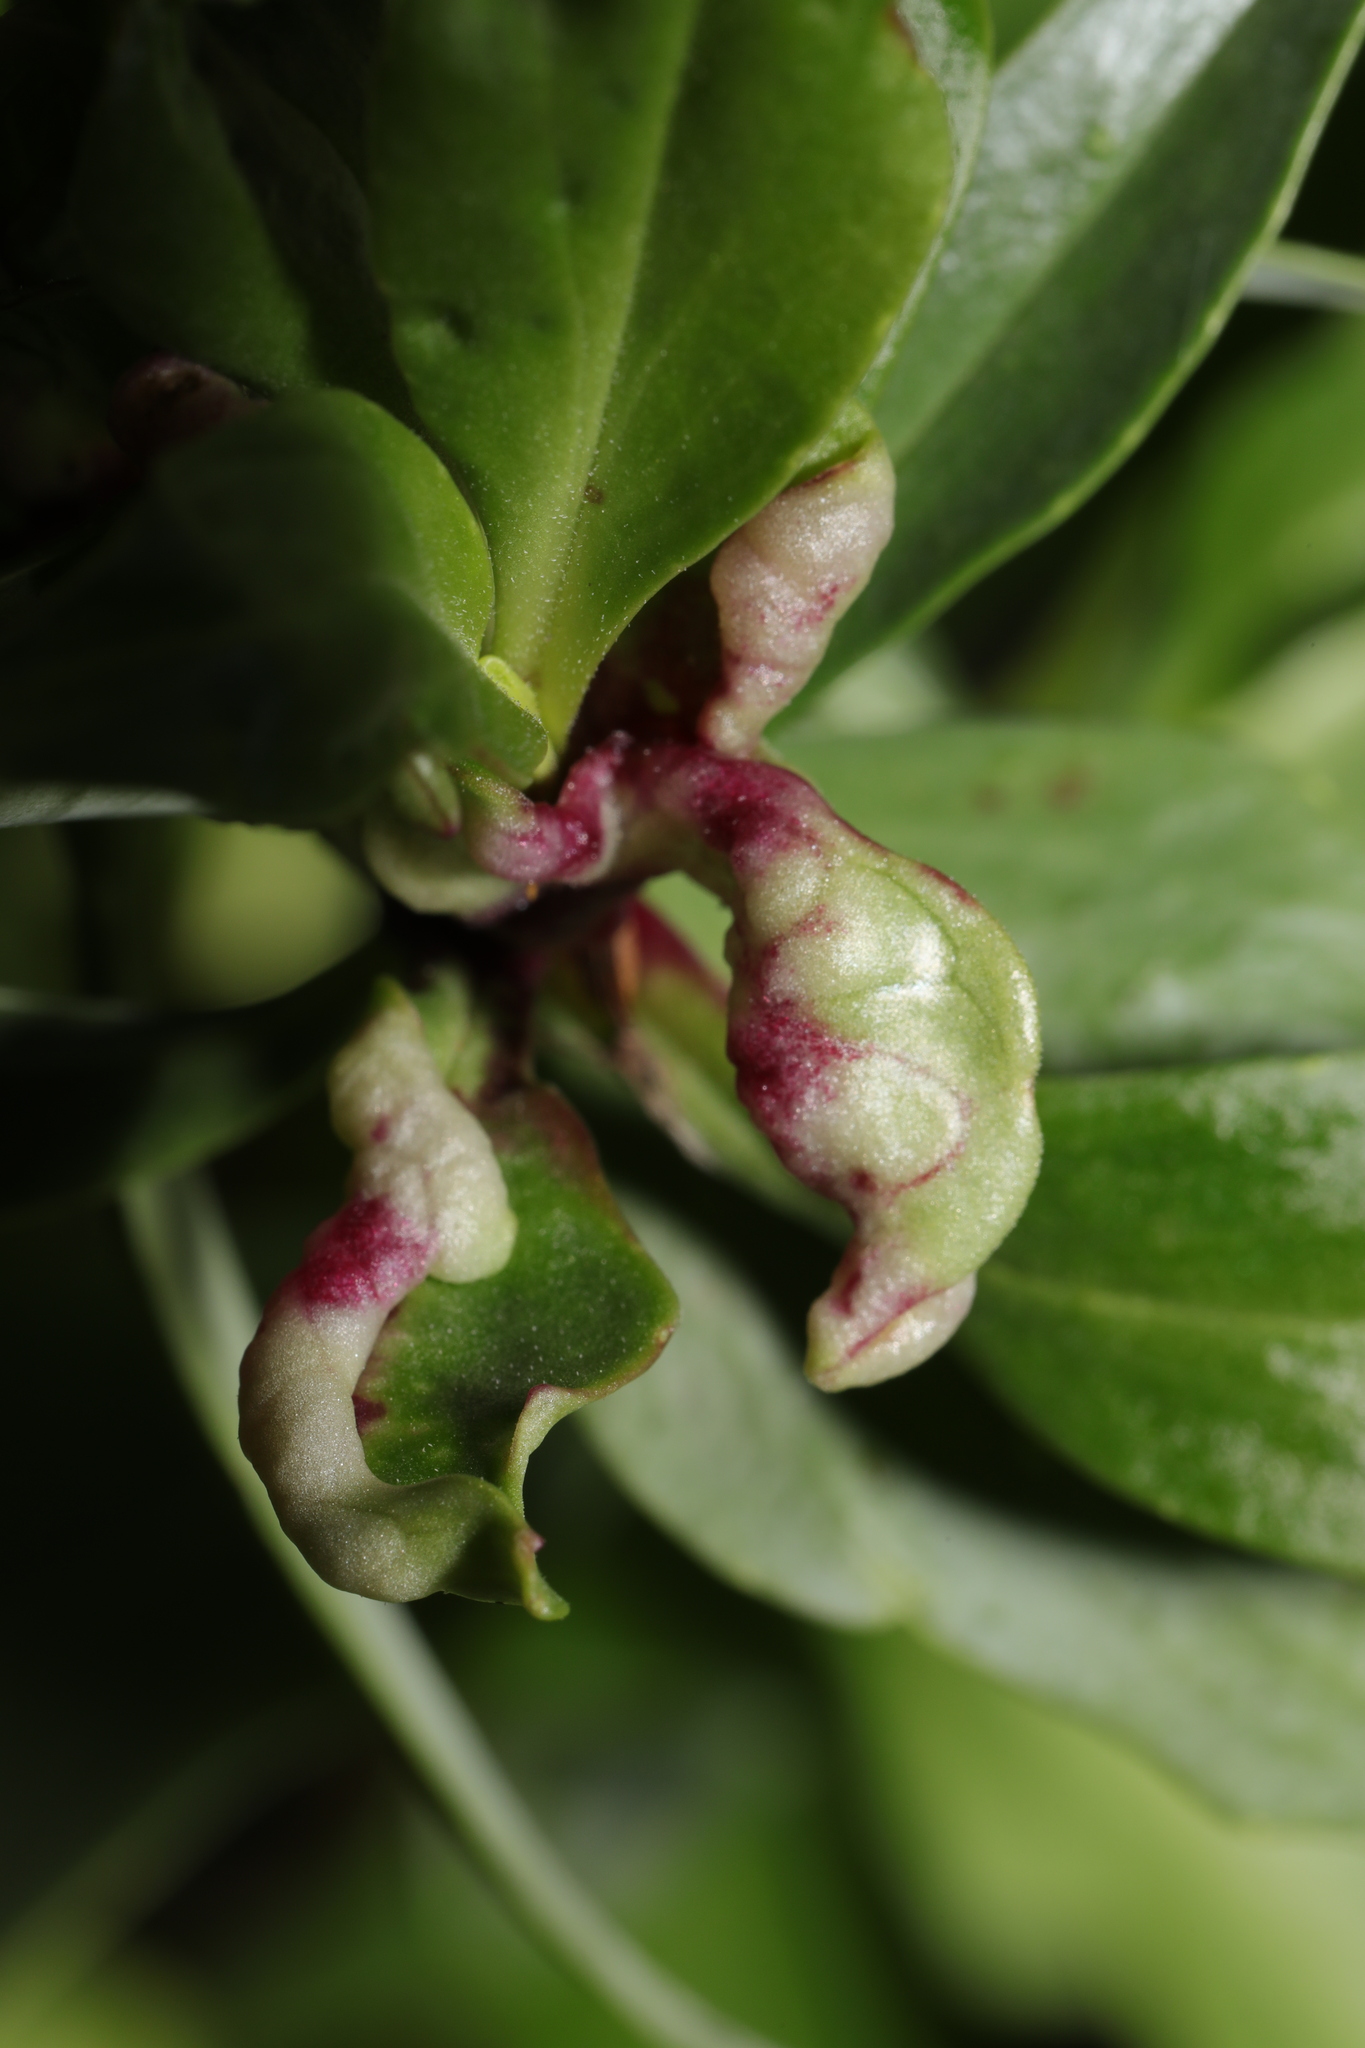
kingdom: Animalia
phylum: Arthropoda
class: Insecta
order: Hemiptera
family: Triozidae
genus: Trioza
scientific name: Trioza centranthi
